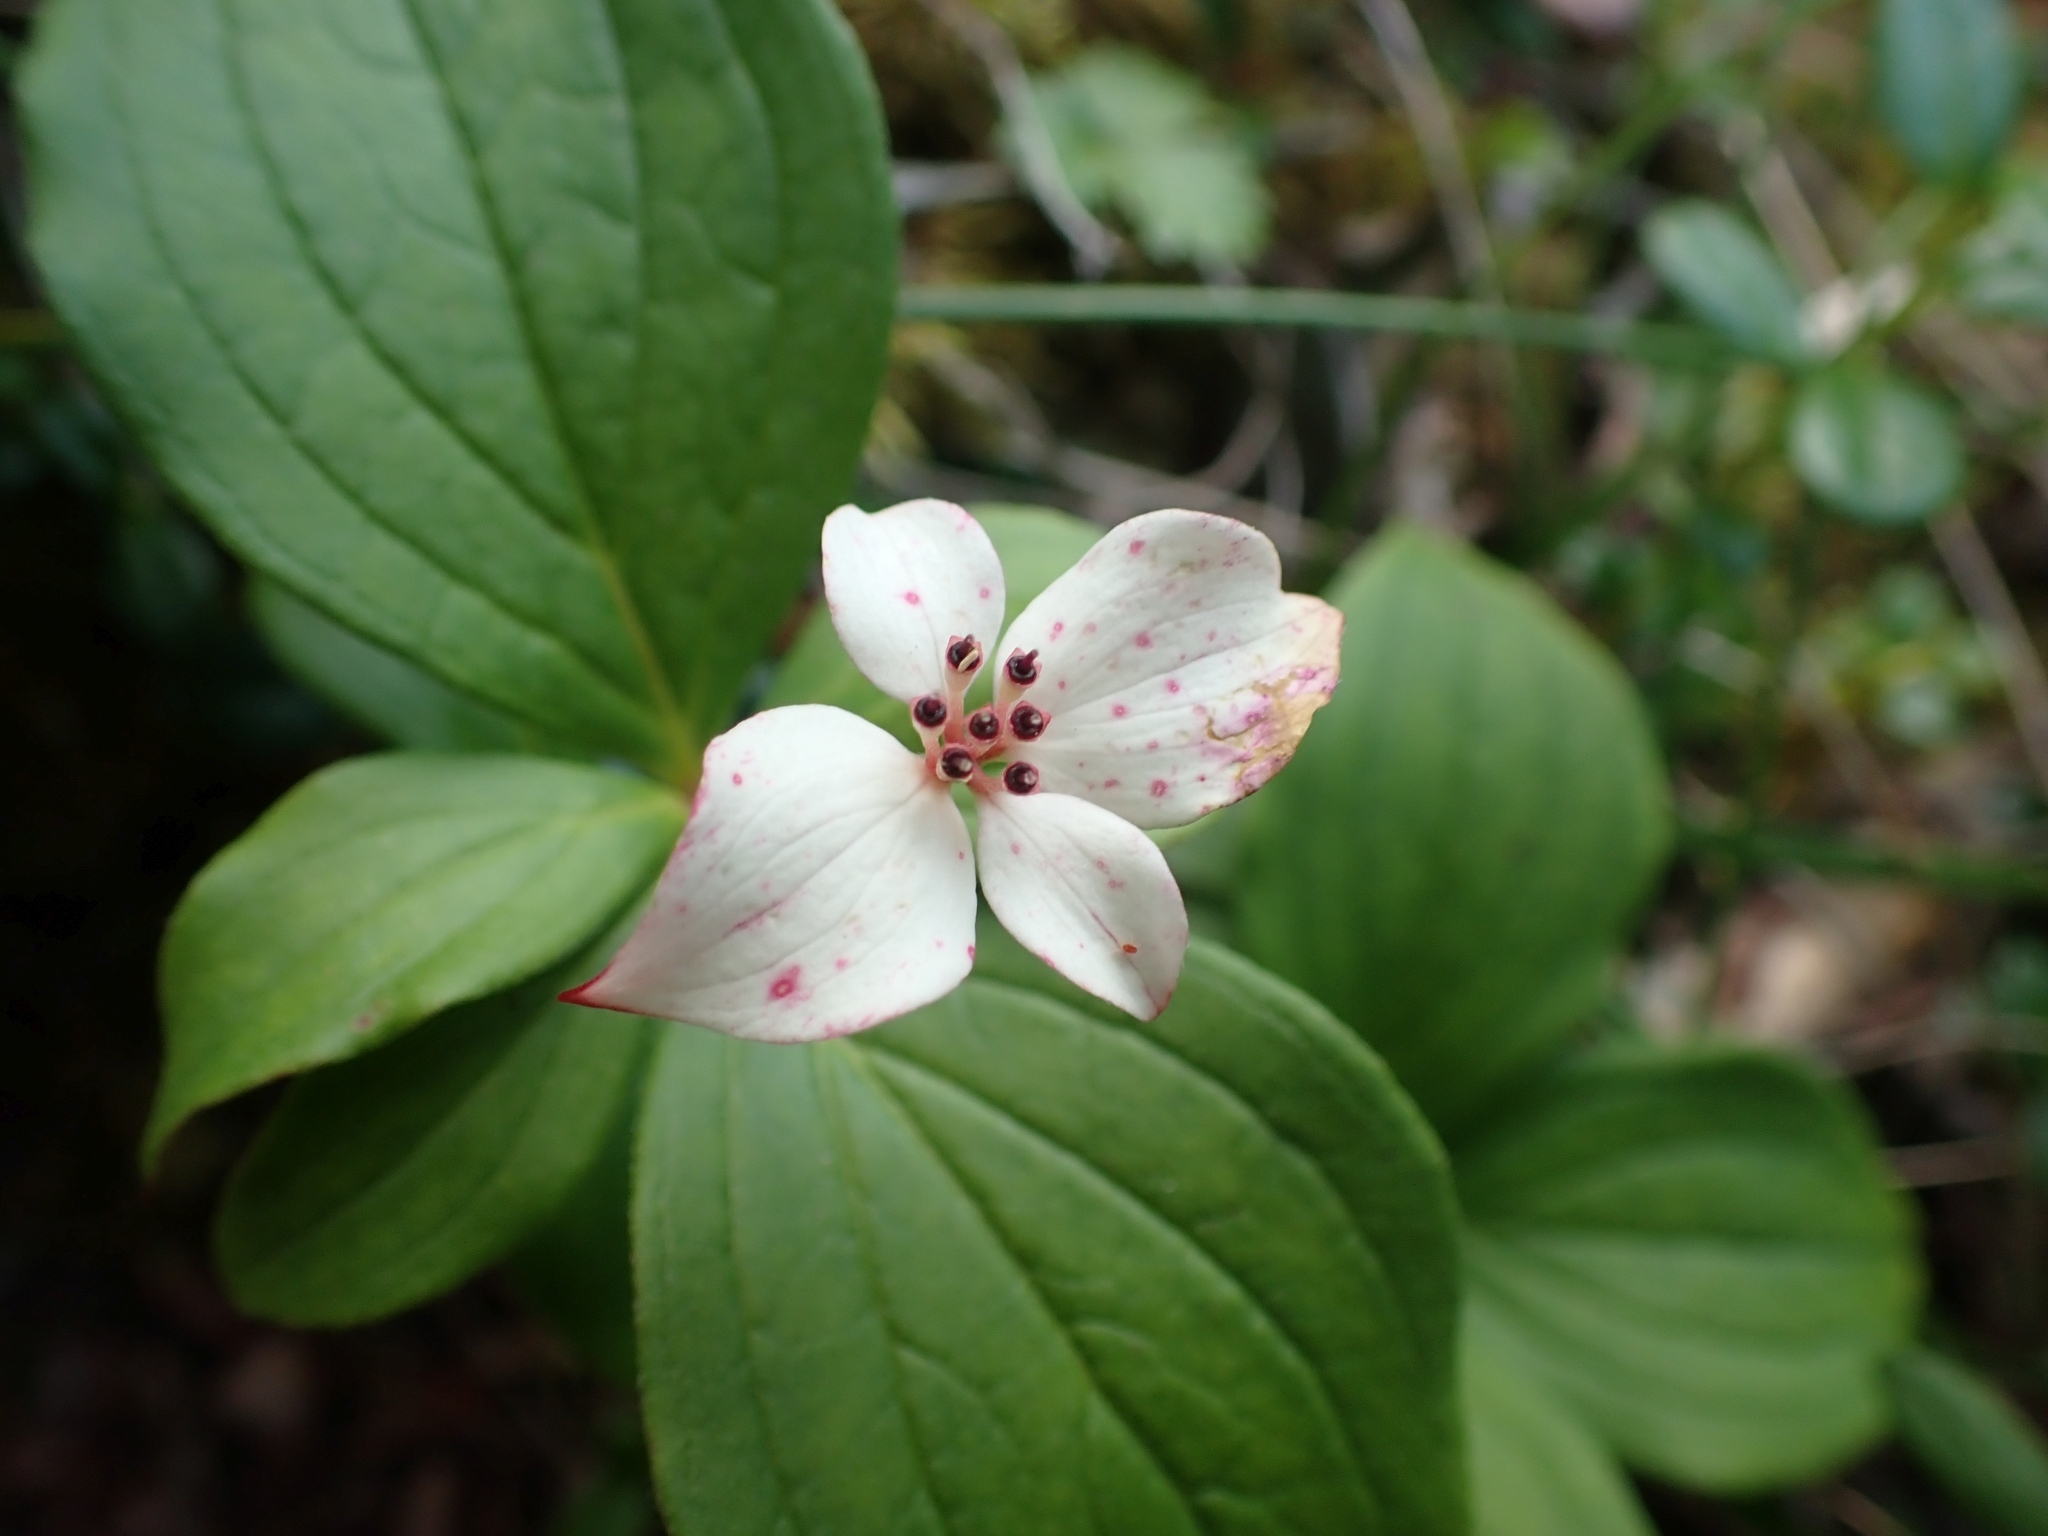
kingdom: Plantae
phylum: Tracheophyta
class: Magnoliopsida
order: Cornales
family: Cornaceae
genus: Cornus
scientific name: Cornus canadensis
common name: Creeping dogwood
